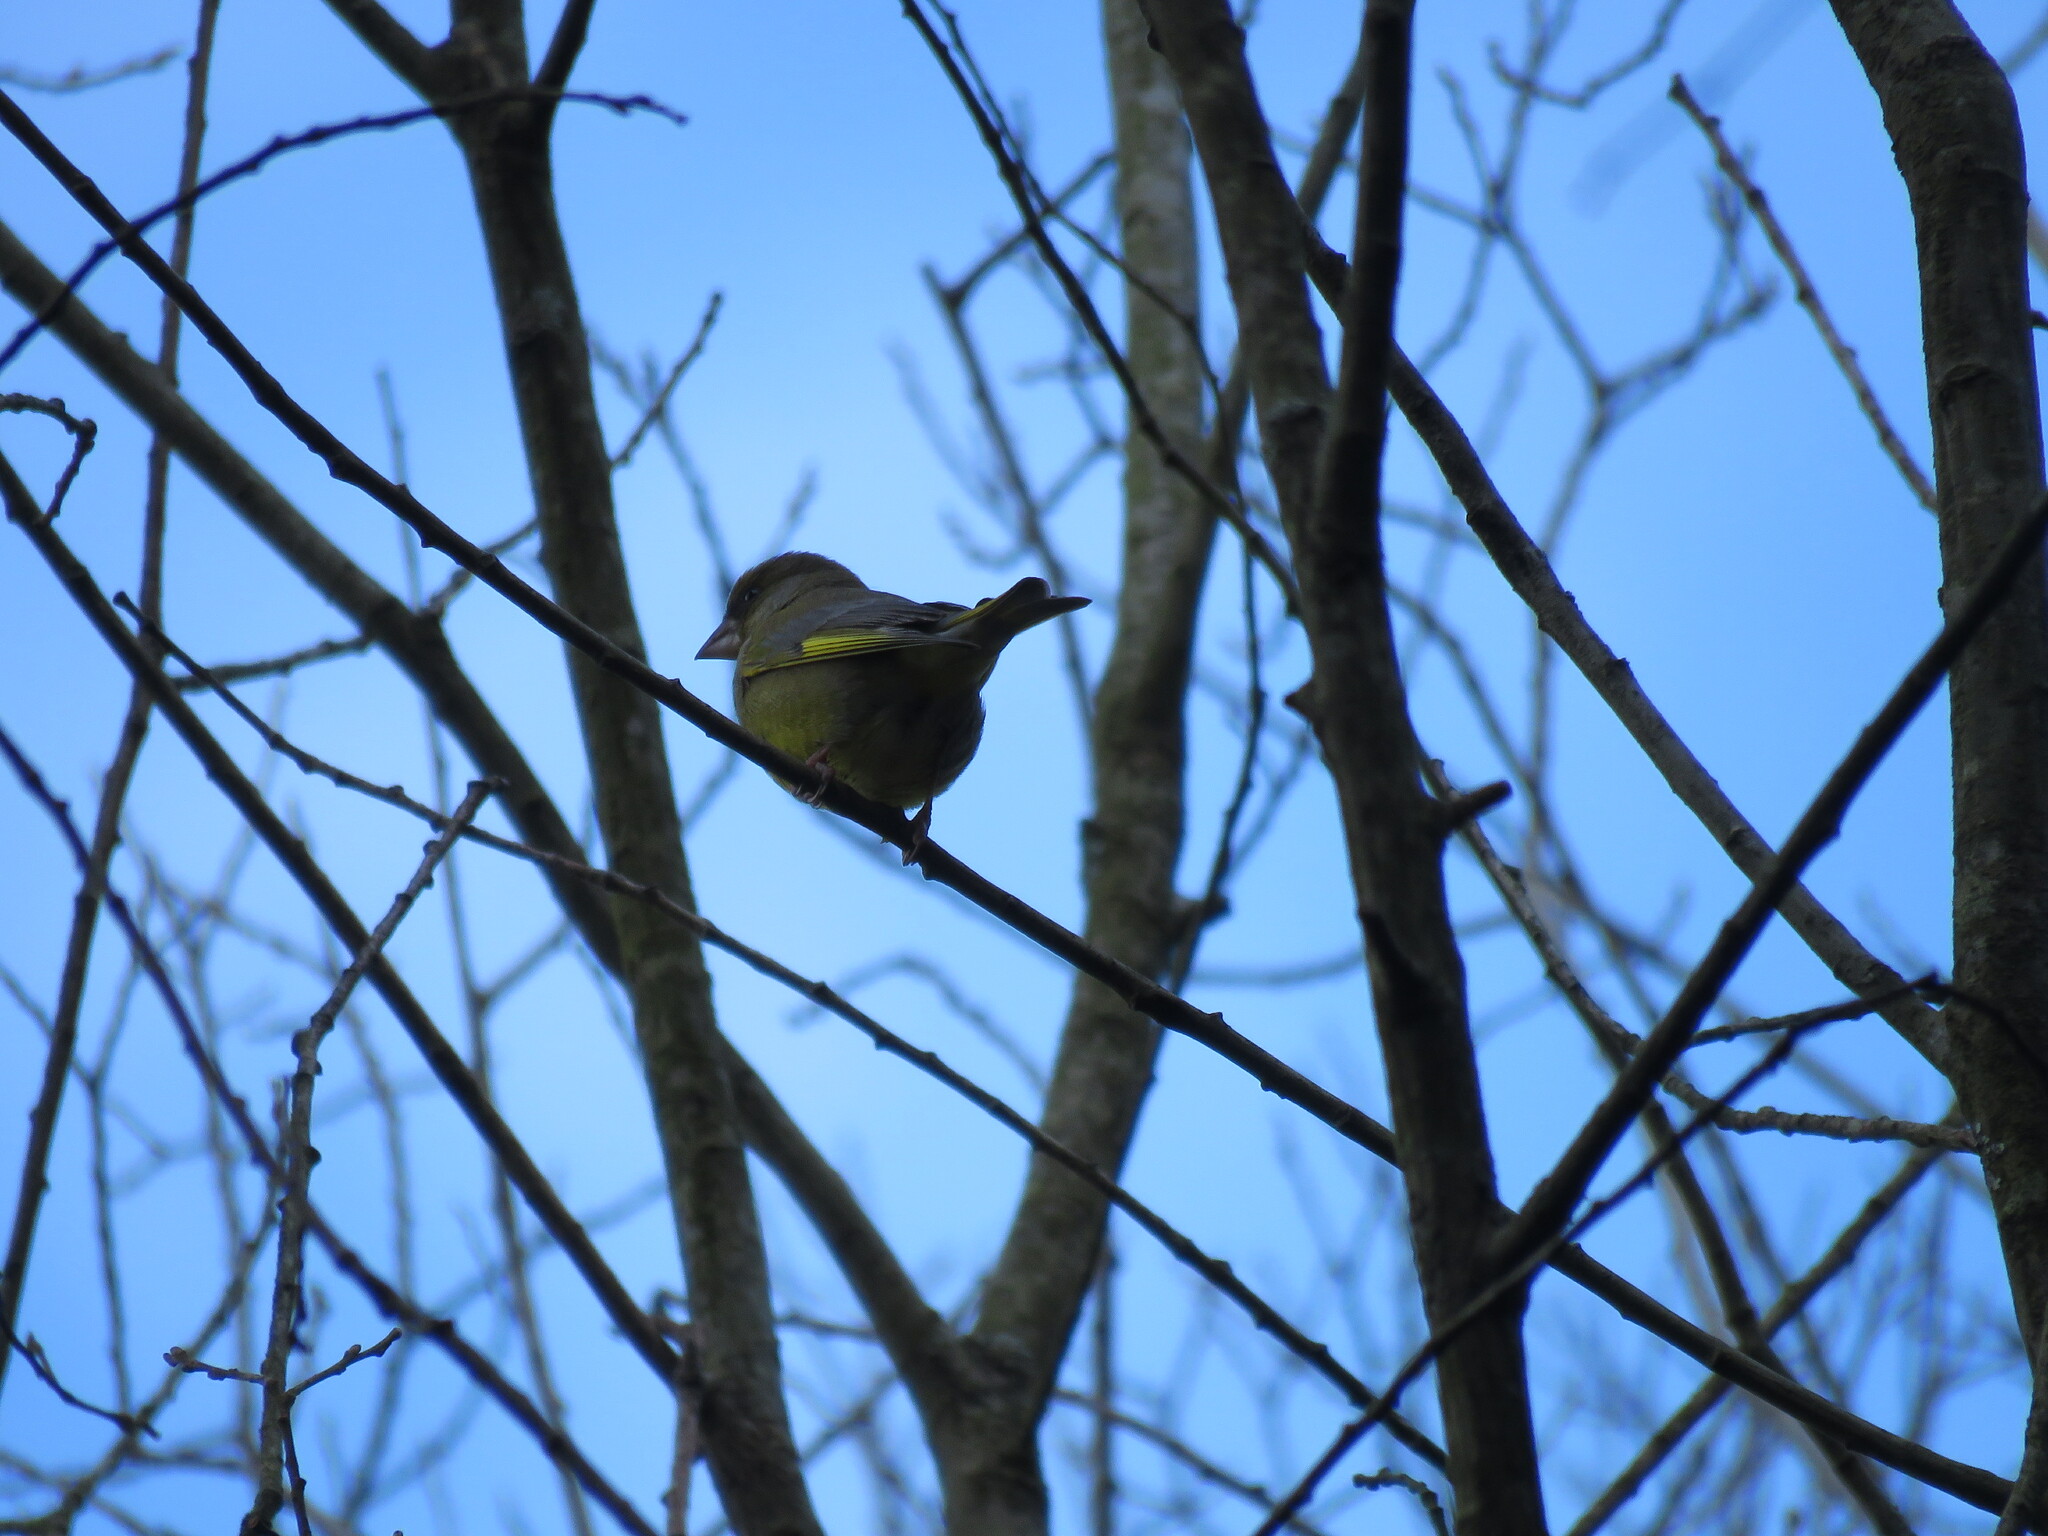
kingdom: Plantae
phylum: Tracheophyta
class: Liliopsida
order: Poales
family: Poaceae
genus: Chloris
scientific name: Chloris chloris
